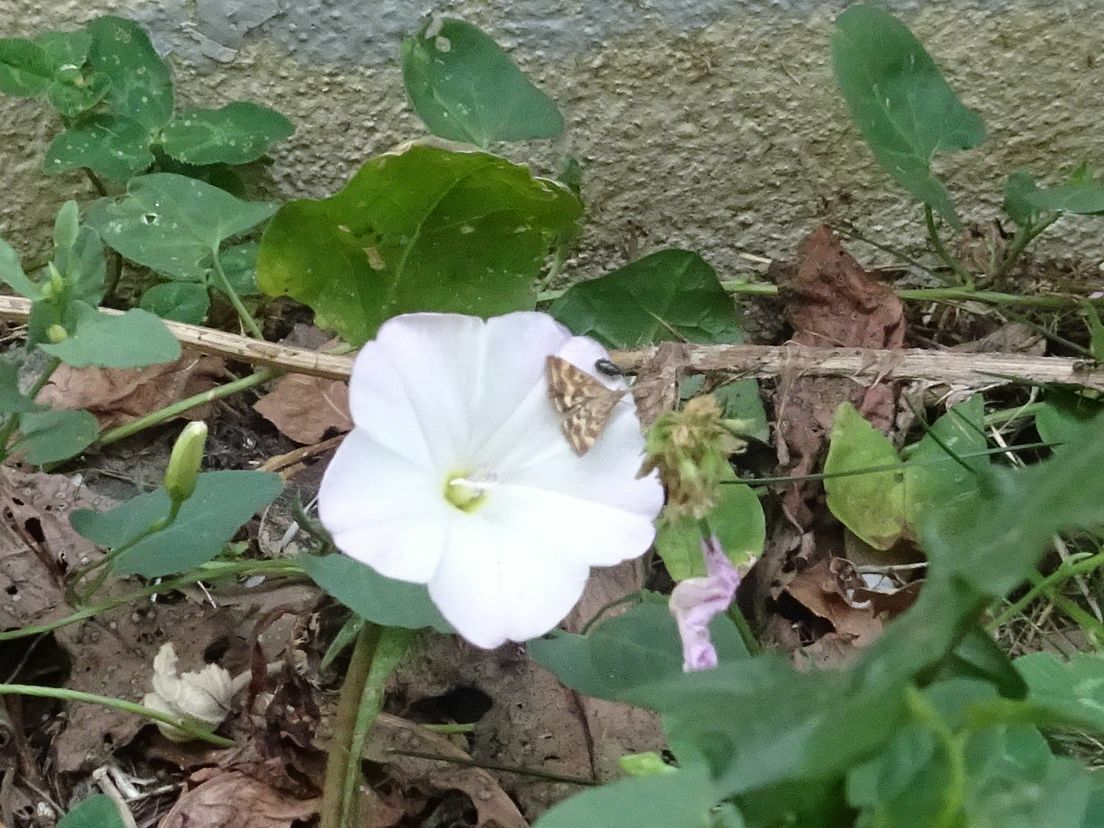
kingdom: Animalia
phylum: Arthropoda
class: Insecta
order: Lepidoptera
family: Crambidae
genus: Pyrausta
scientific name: Pyrausta despicata
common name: Straw-barred pearl
